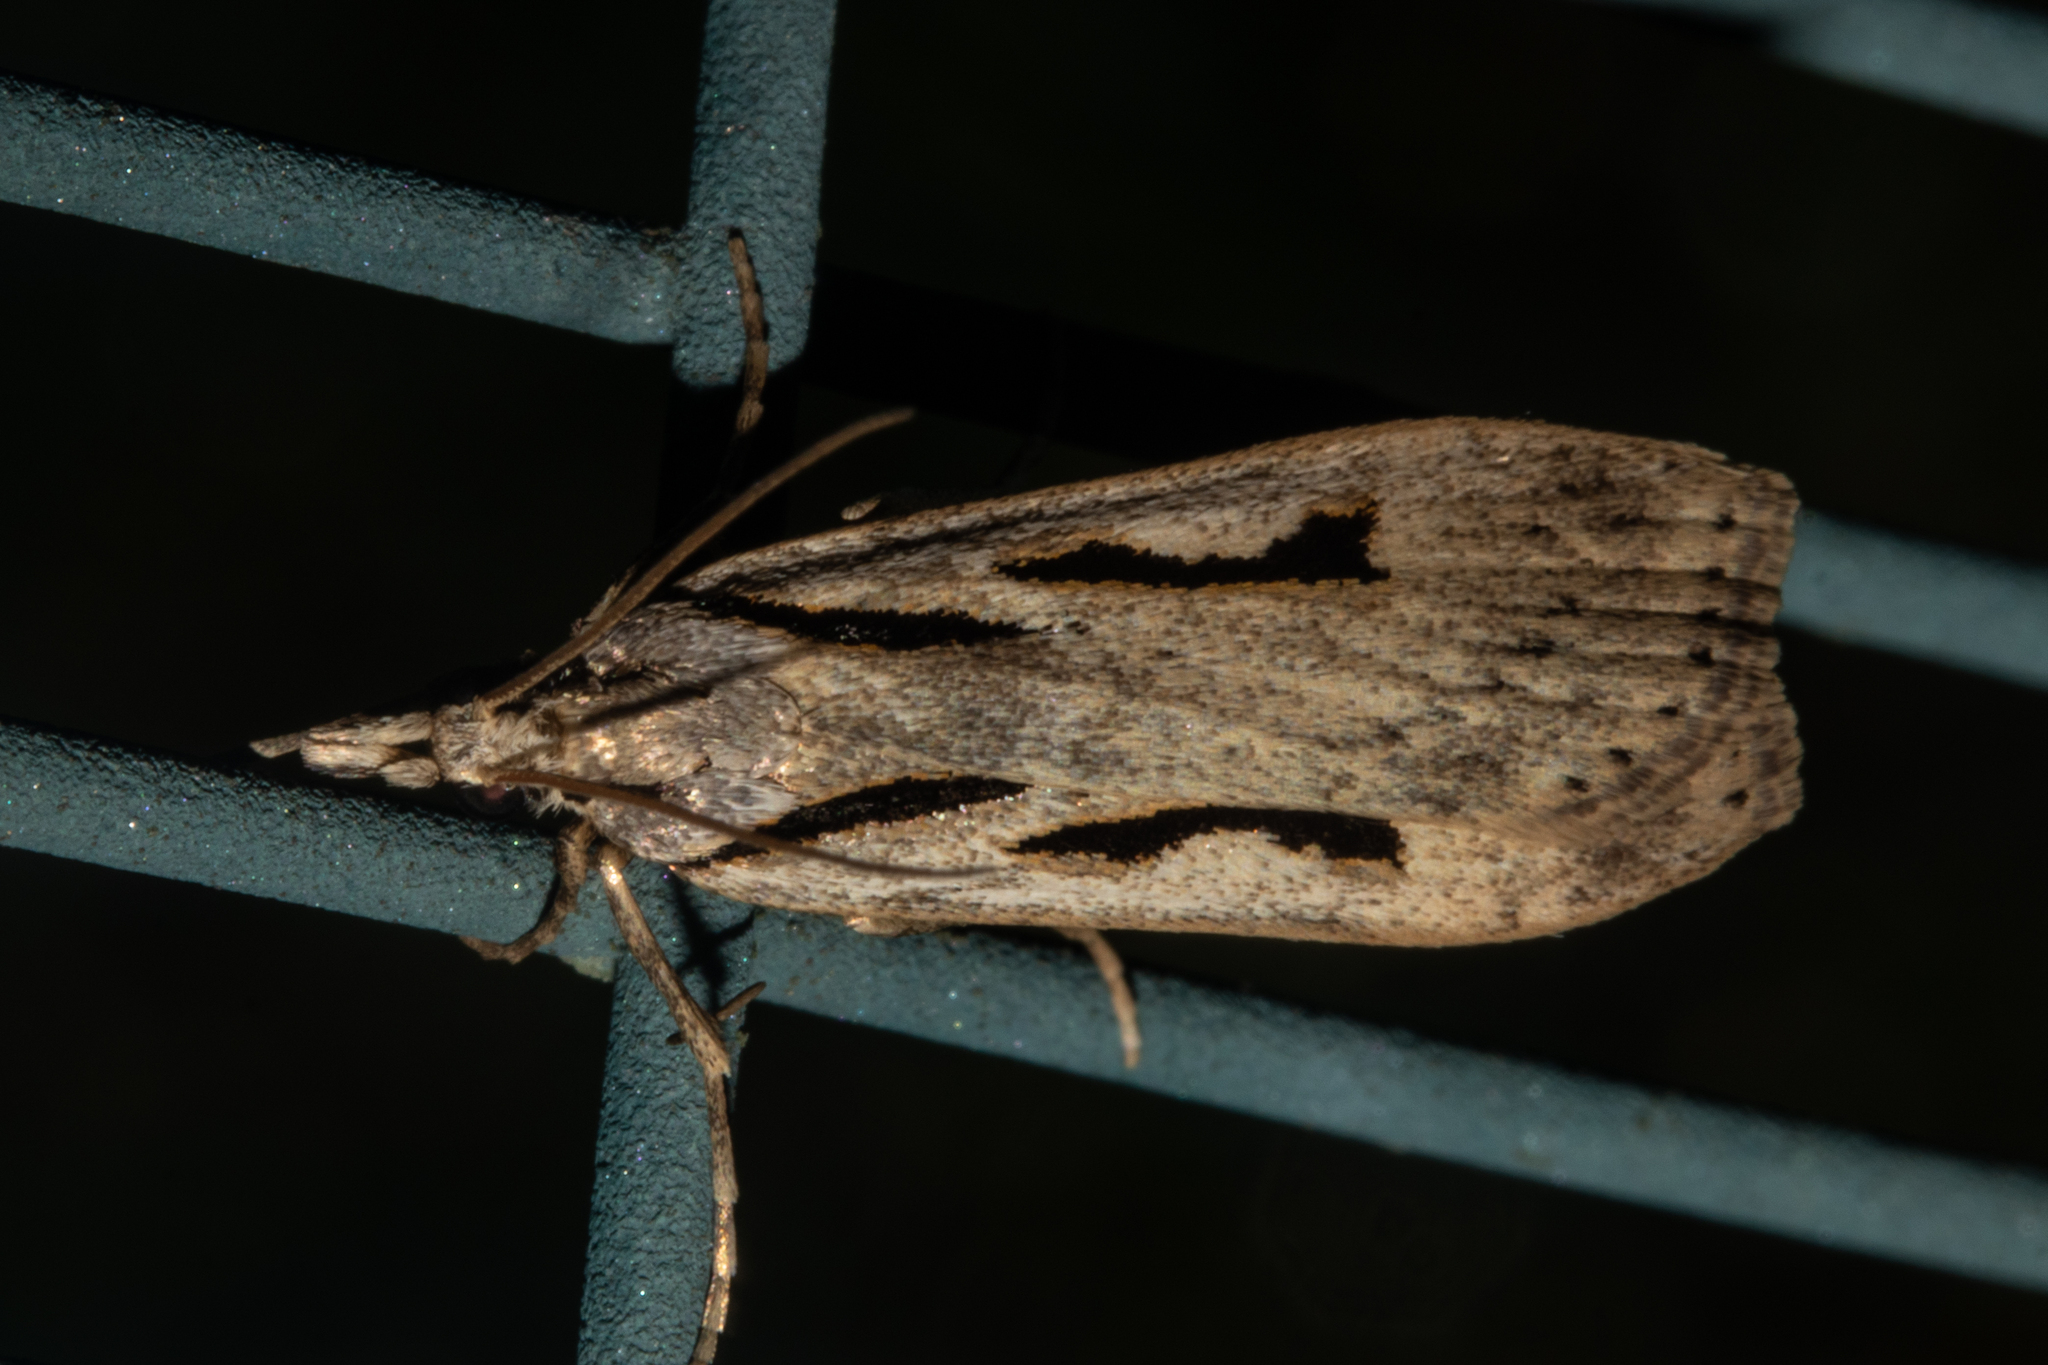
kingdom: Animalia
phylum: Arthropoda
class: Insecta
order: Lepidoptera
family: Crambidae
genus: Scoparia
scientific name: Scoparia rotuellus
